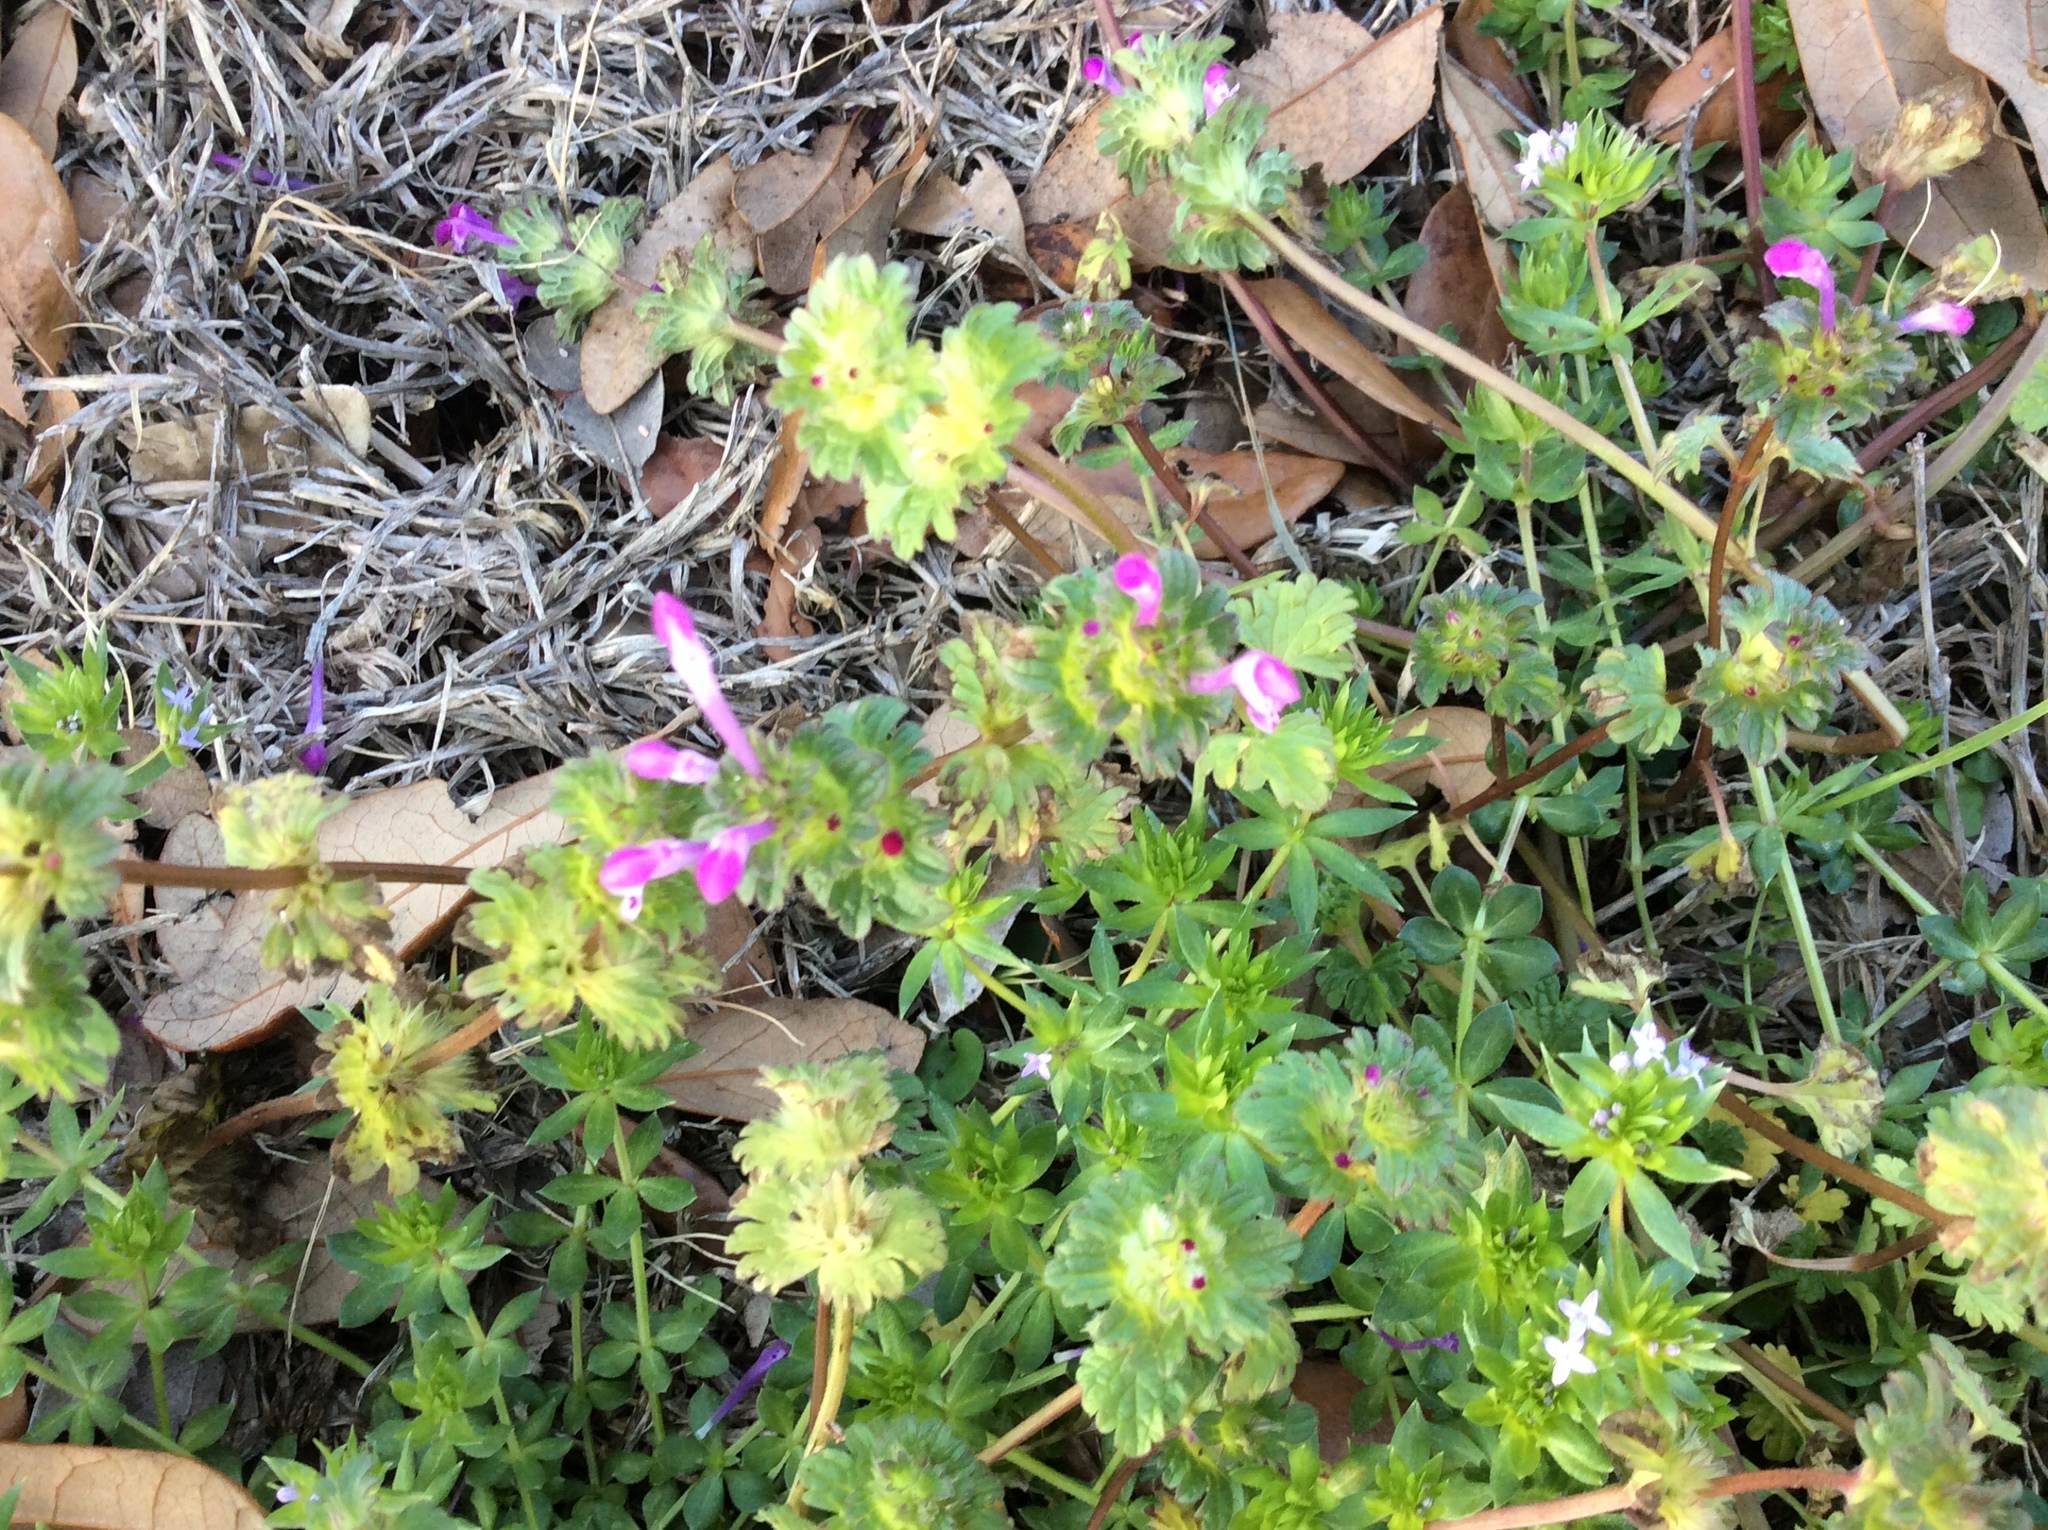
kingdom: Plantae
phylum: Tracheophyta
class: Magnoliopsida
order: Lamiales
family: Lamiaceae
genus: Lamium
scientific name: Lamium amplexicaule
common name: Henbit dead-nettle
